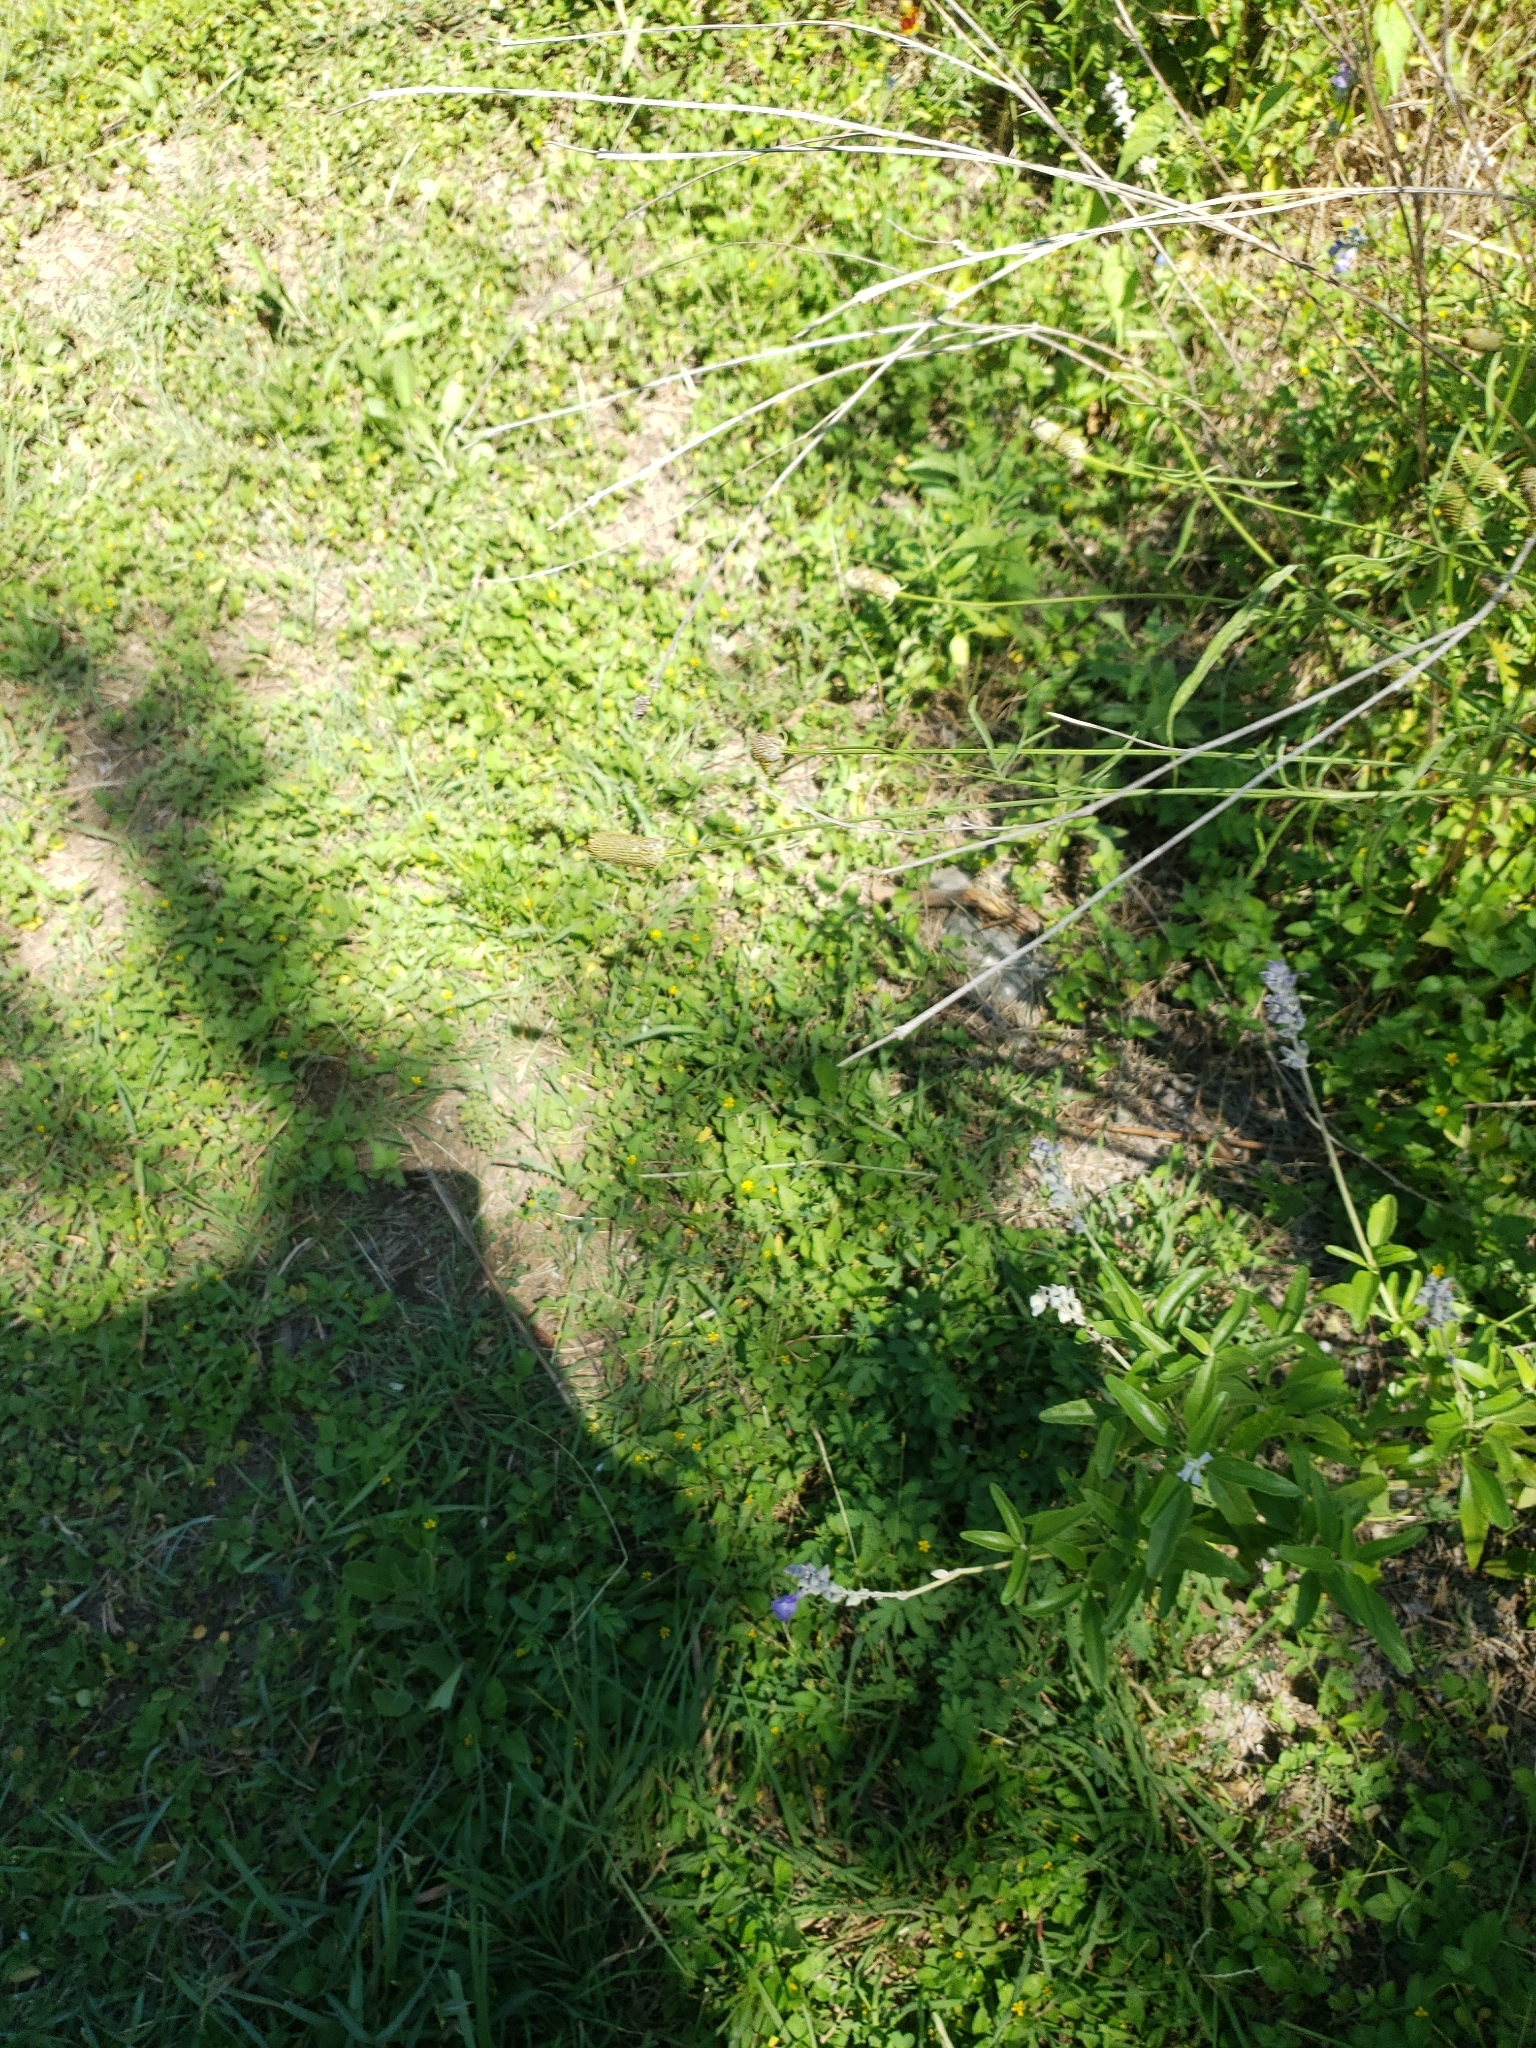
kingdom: Plantae
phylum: Tracheophyta
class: Magnoliopsida
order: Lamiales
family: Lamiaceae
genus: Salvia
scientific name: Salvia farinacea
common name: Mealy sage
